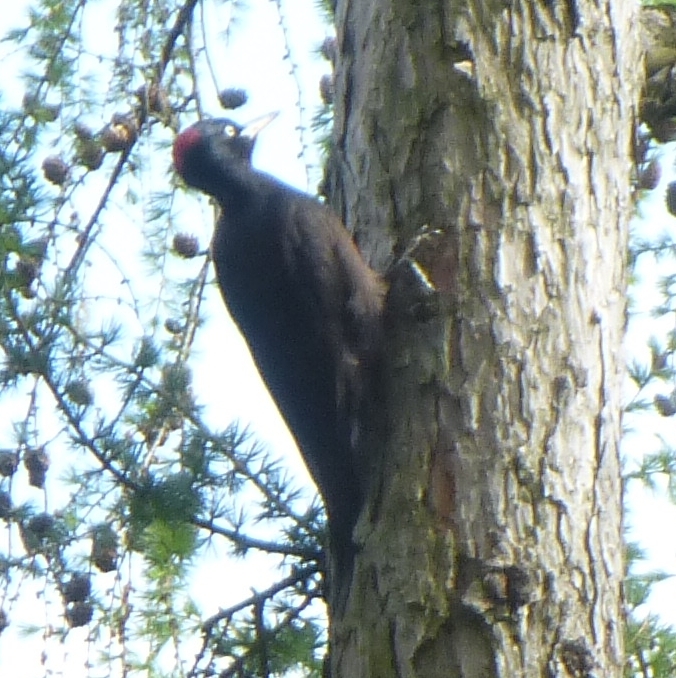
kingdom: Animalia
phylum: Chordata
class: Aves
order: Piciformes
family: Picidae
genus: Dryocopus
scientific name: Dryocopus martius
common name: Black woodpecker
